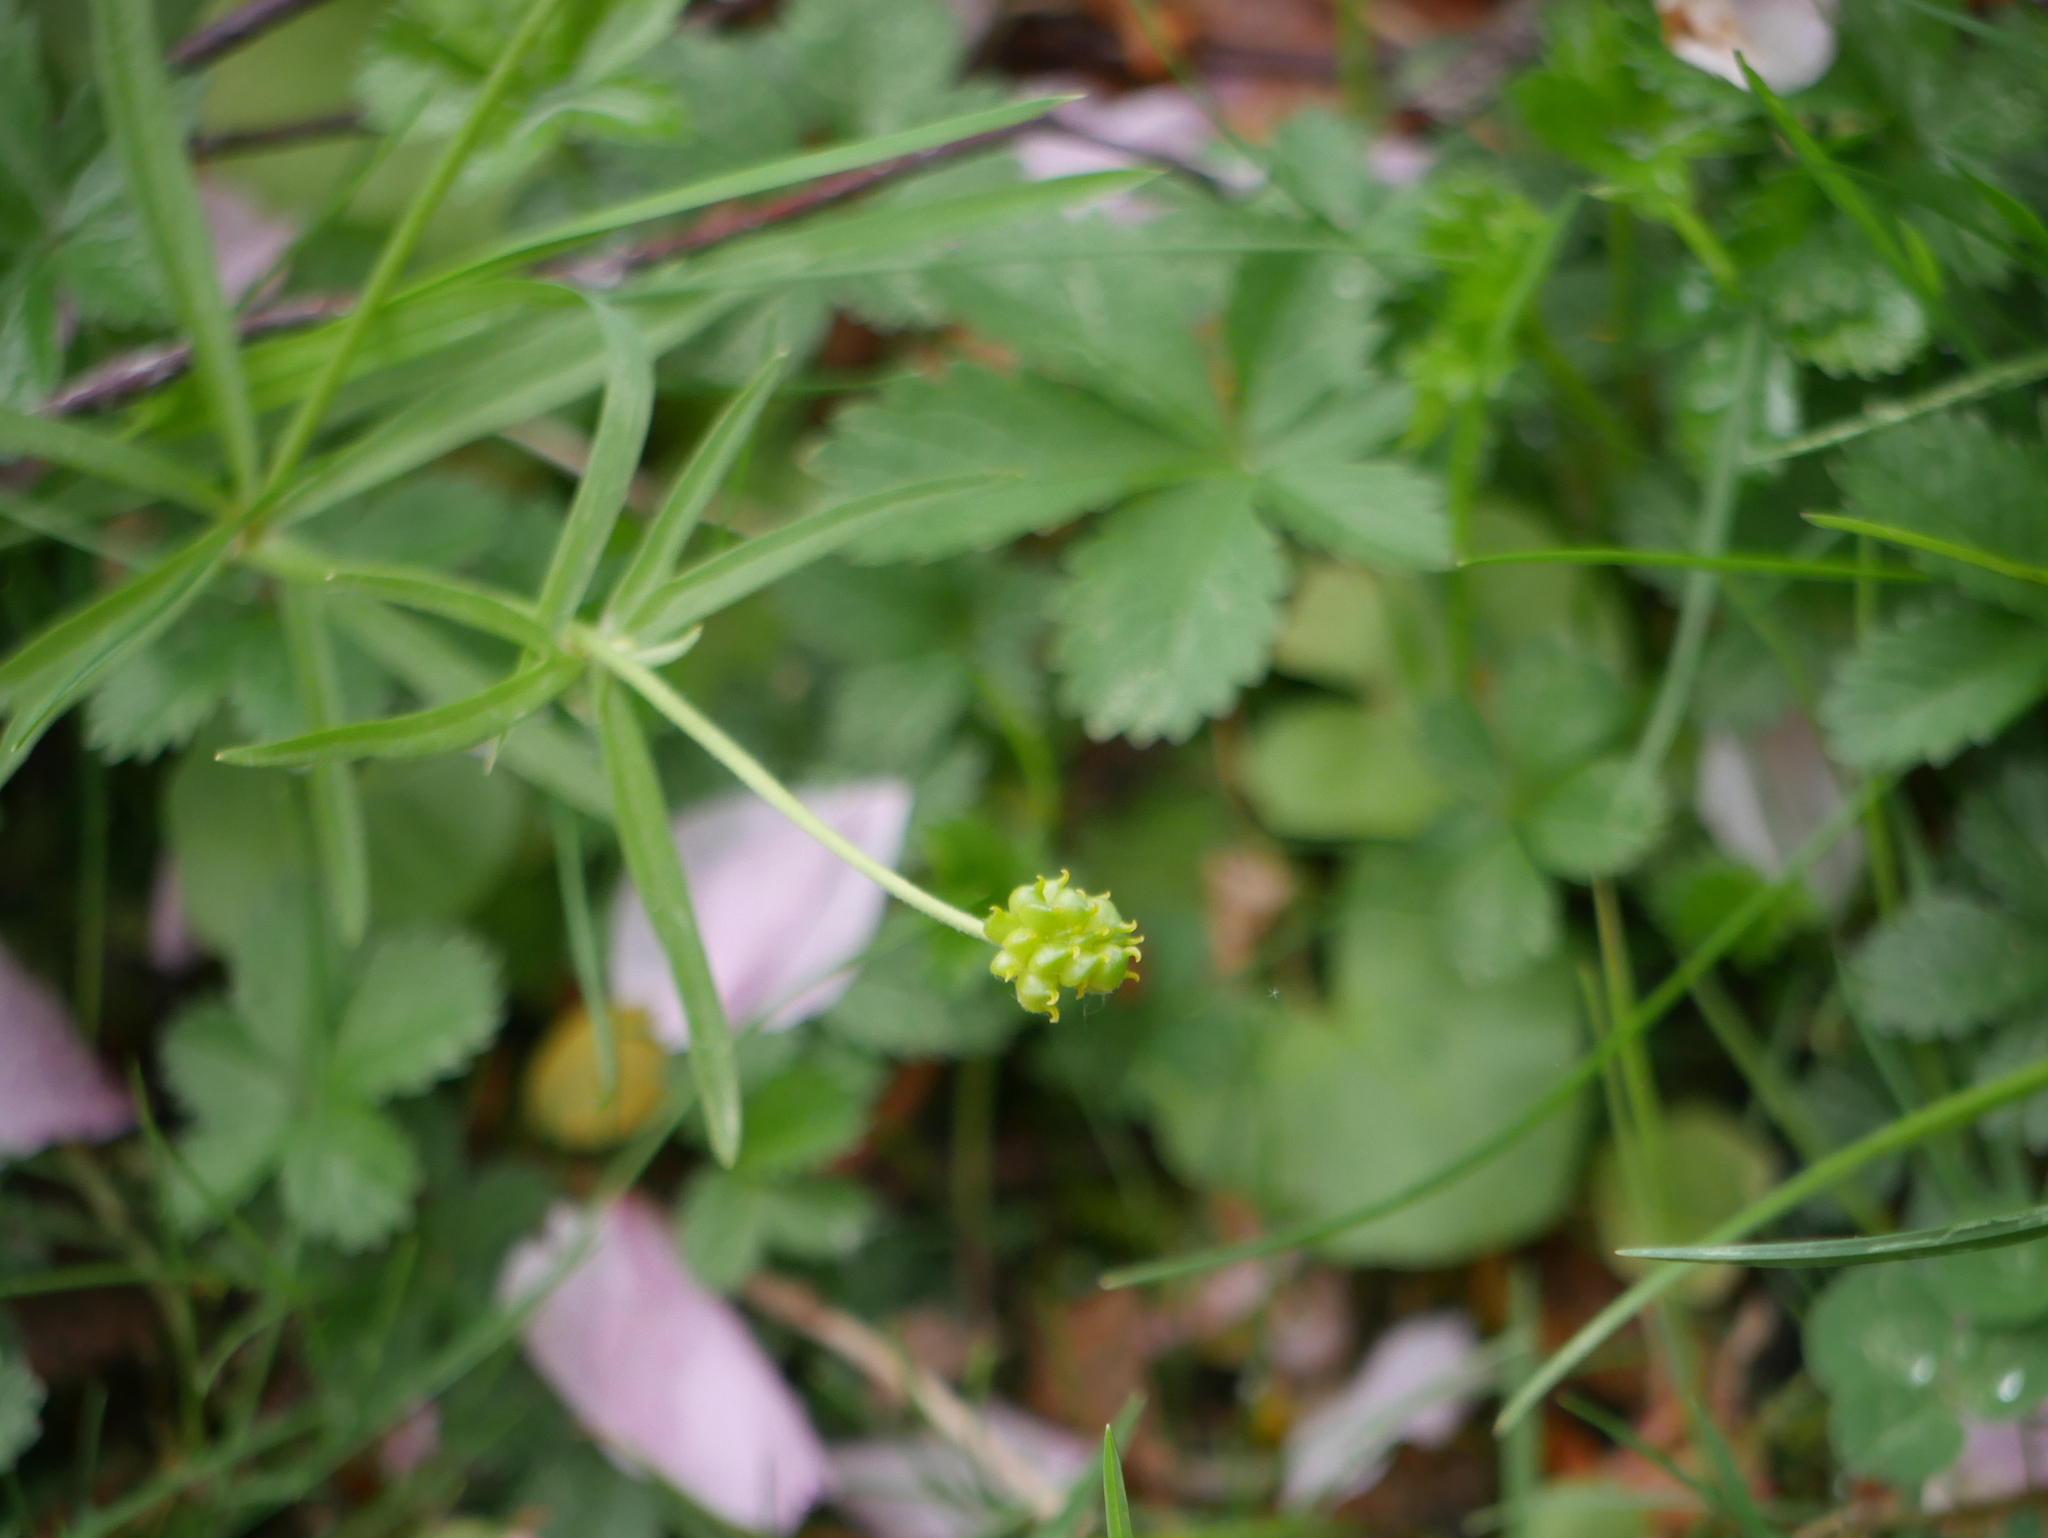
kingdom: Plantae
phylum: Tracheophyta
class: Magnoliopsida
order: Ranunculales
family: Ranunculaceae
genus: Ranunculus
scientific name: Ranunculus auricomus
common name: Goldilocks buttercup
